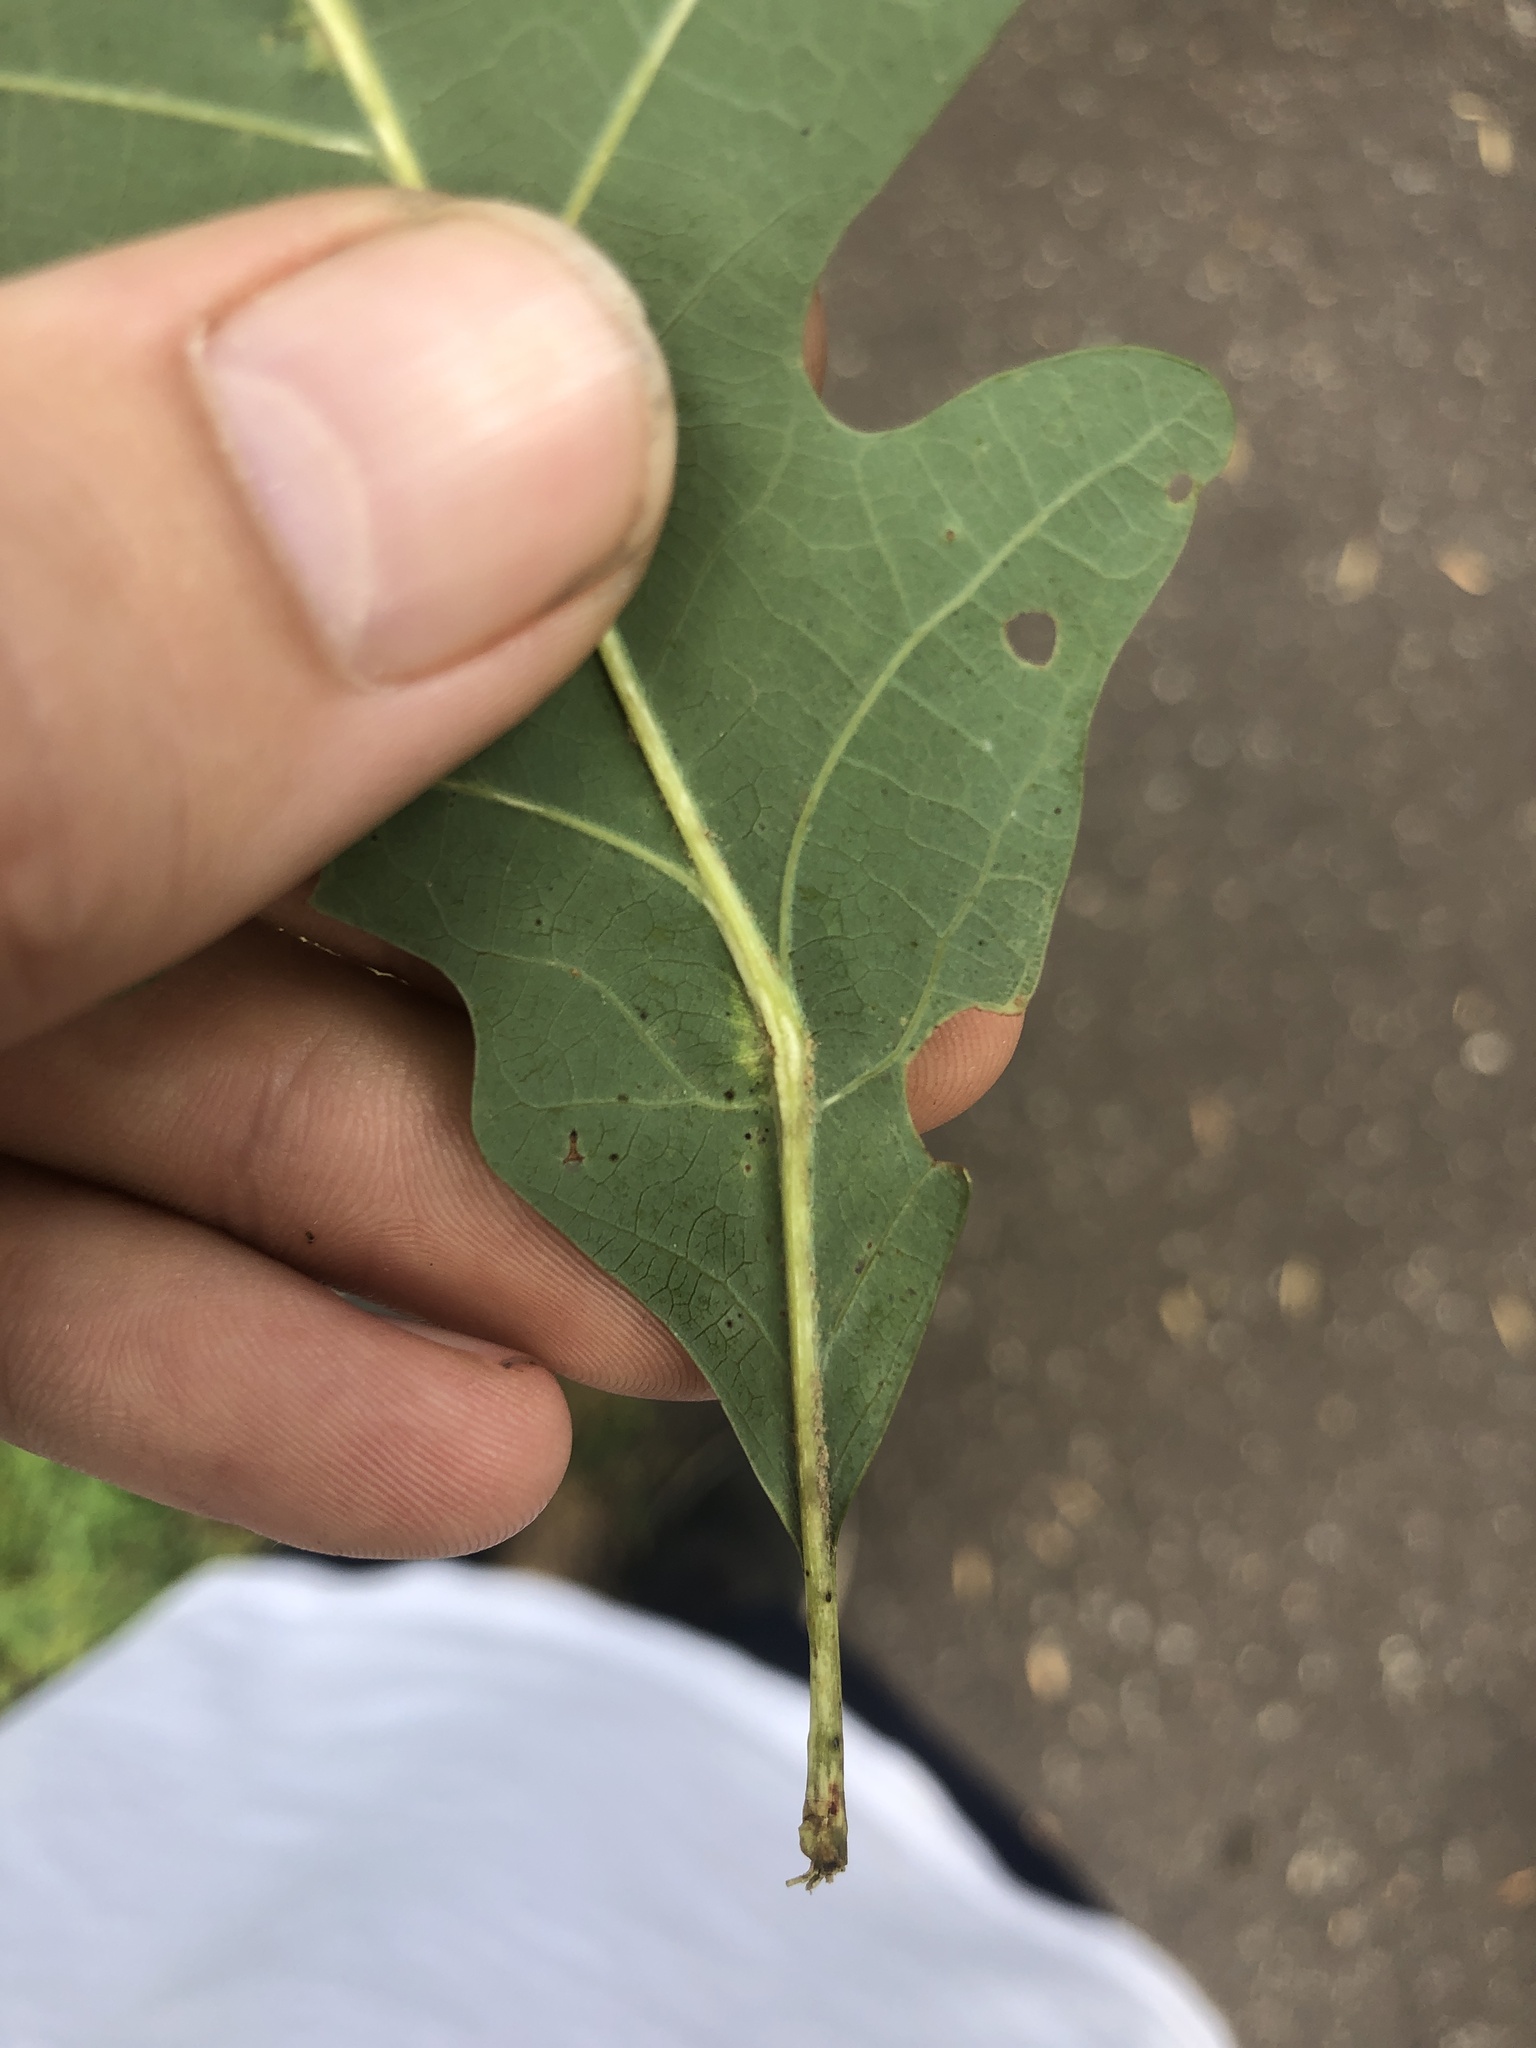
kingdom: Animalia
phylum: Arthropoda
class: Insecta
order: Hemiptera
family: Kermesidae
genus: Nanokermes
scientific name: Nanokermes folium
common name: Leaf kermes
